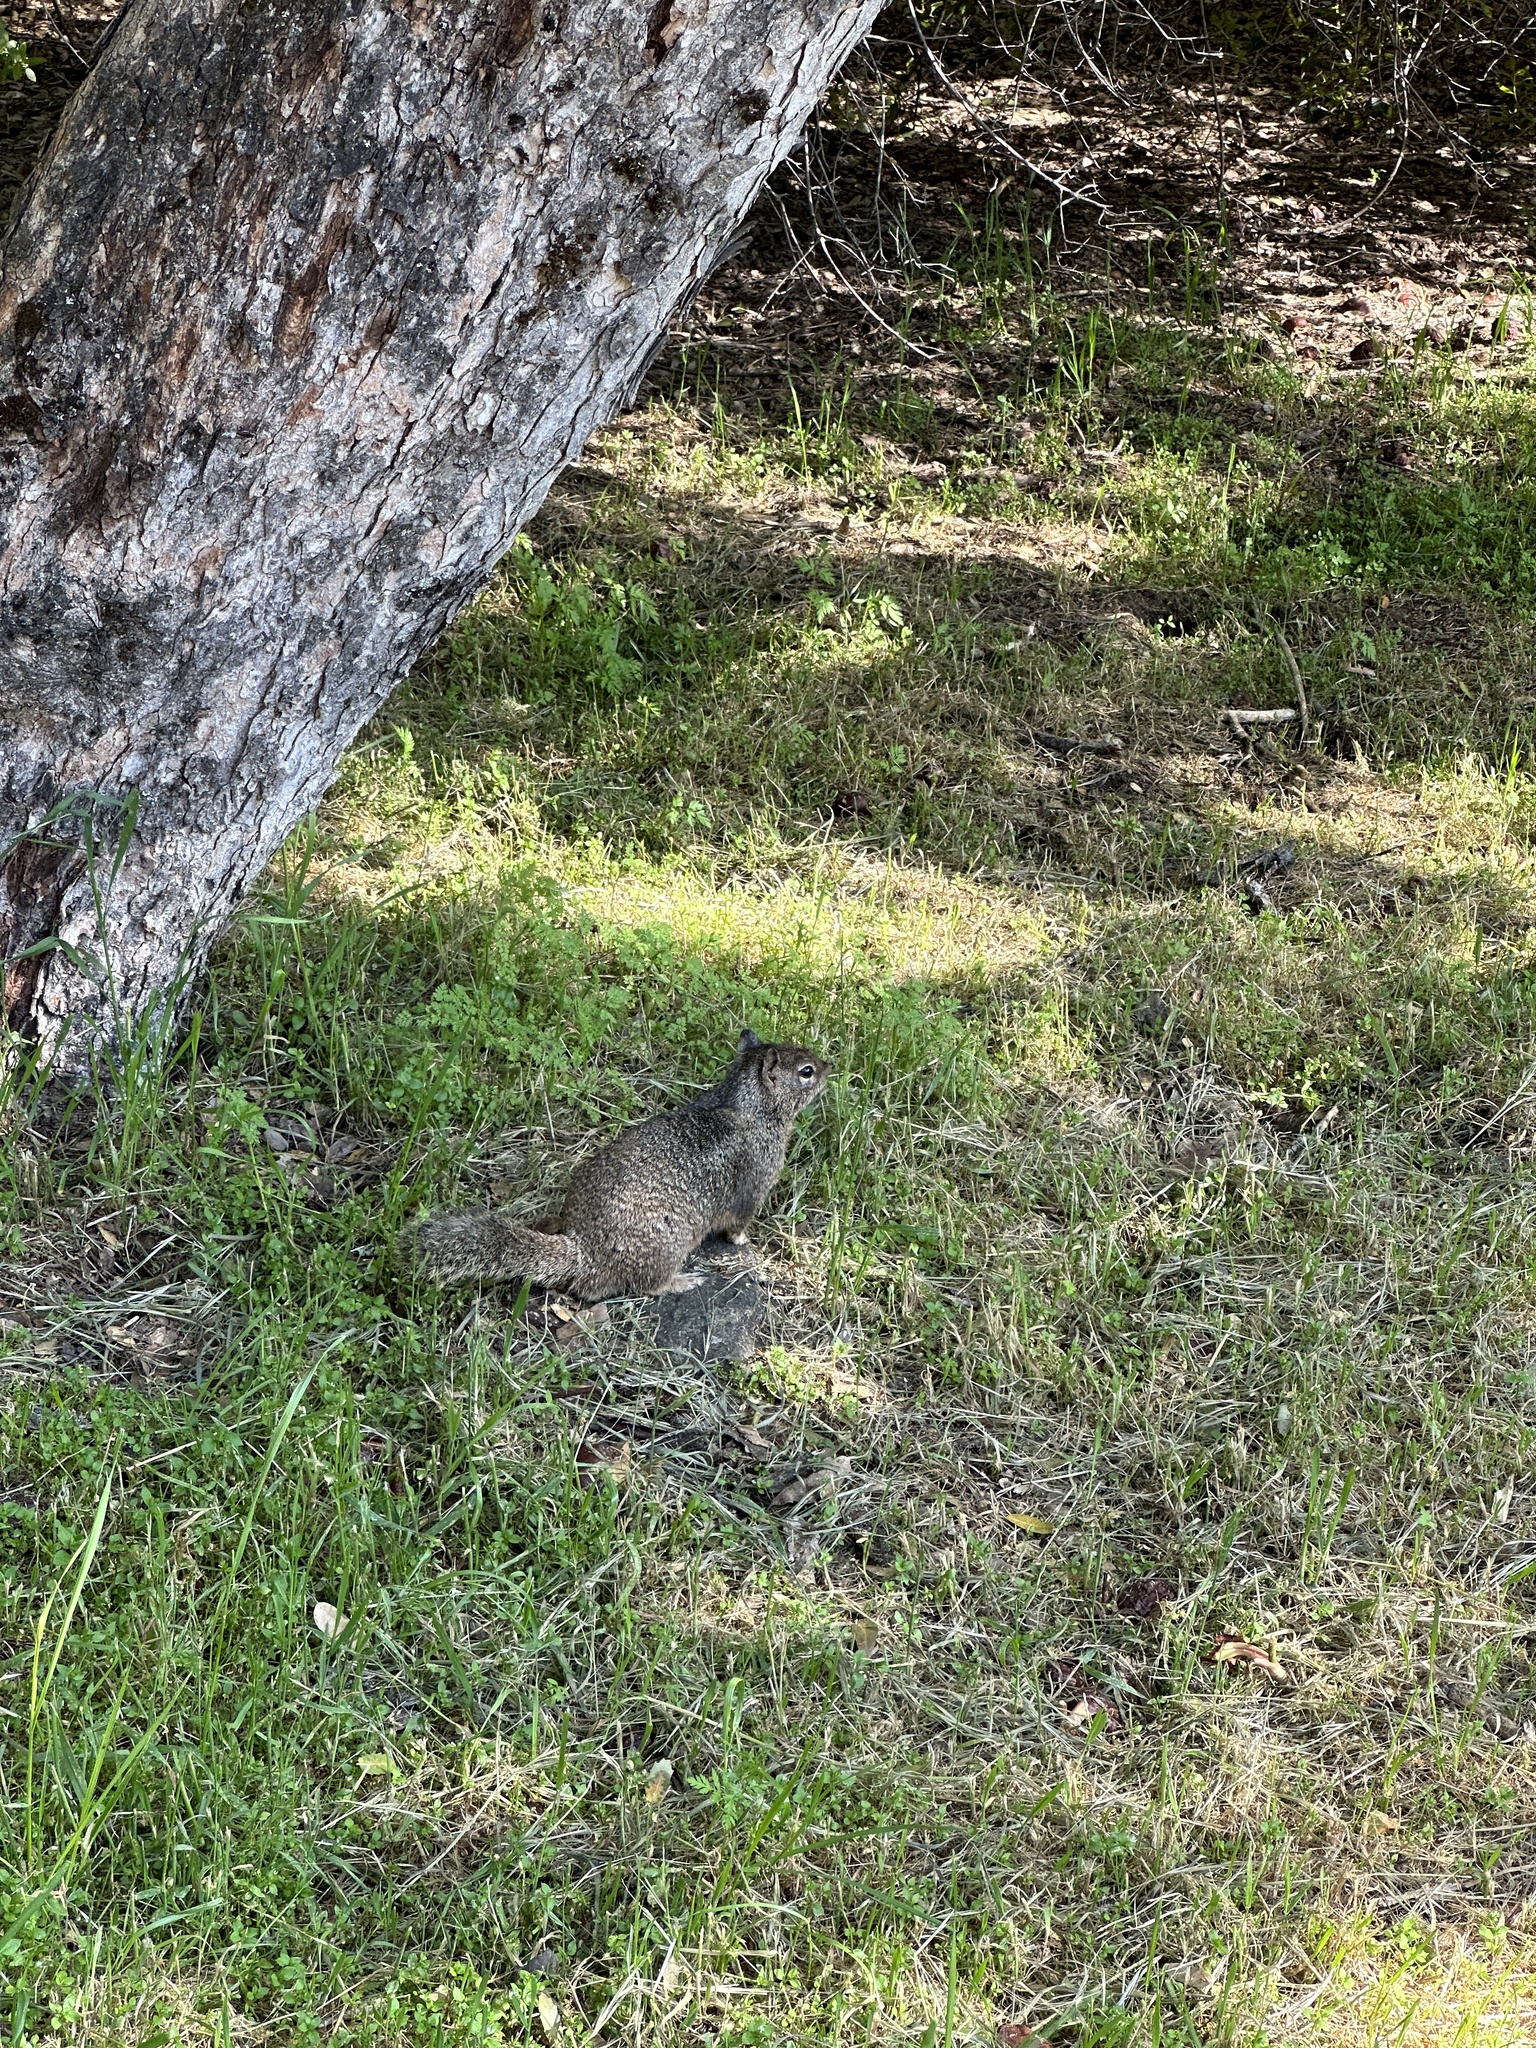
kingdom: Animalia
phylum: Chordata
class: Mammalia
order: Rodentia
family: Sciuridae
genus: Otospermophilus
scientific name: Otospermophilus beecheyi
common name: California ground squirrel
